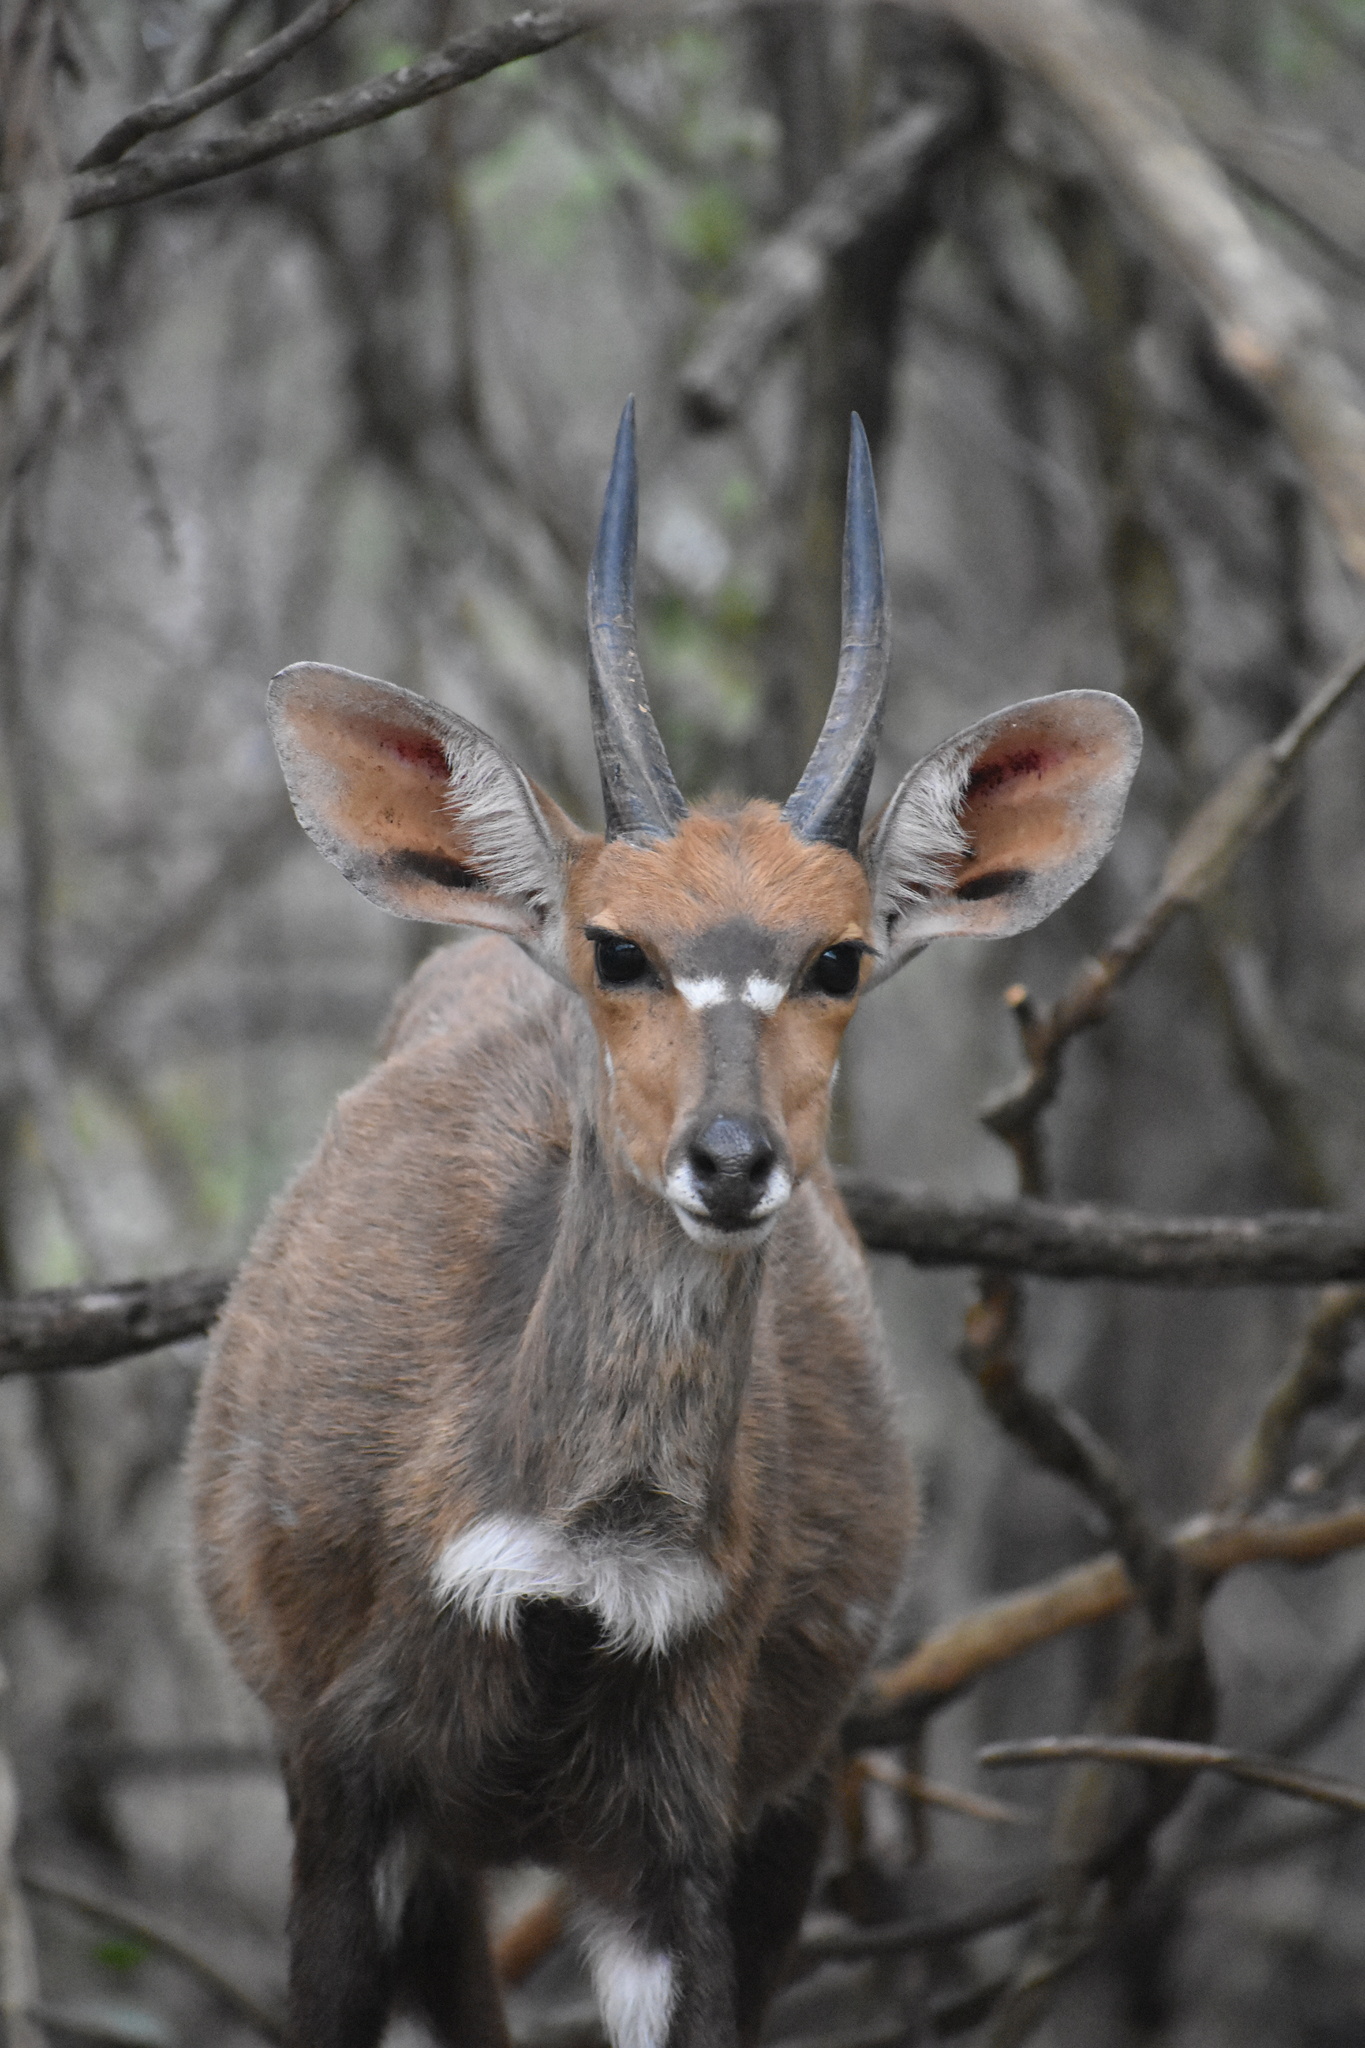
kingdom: Animalia
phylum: Chordata
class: Mammalia
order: Artiodactyla
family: Bovidae
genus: Tragelaphus
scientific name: Tragelaphus scriptus
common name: Bushbuck
